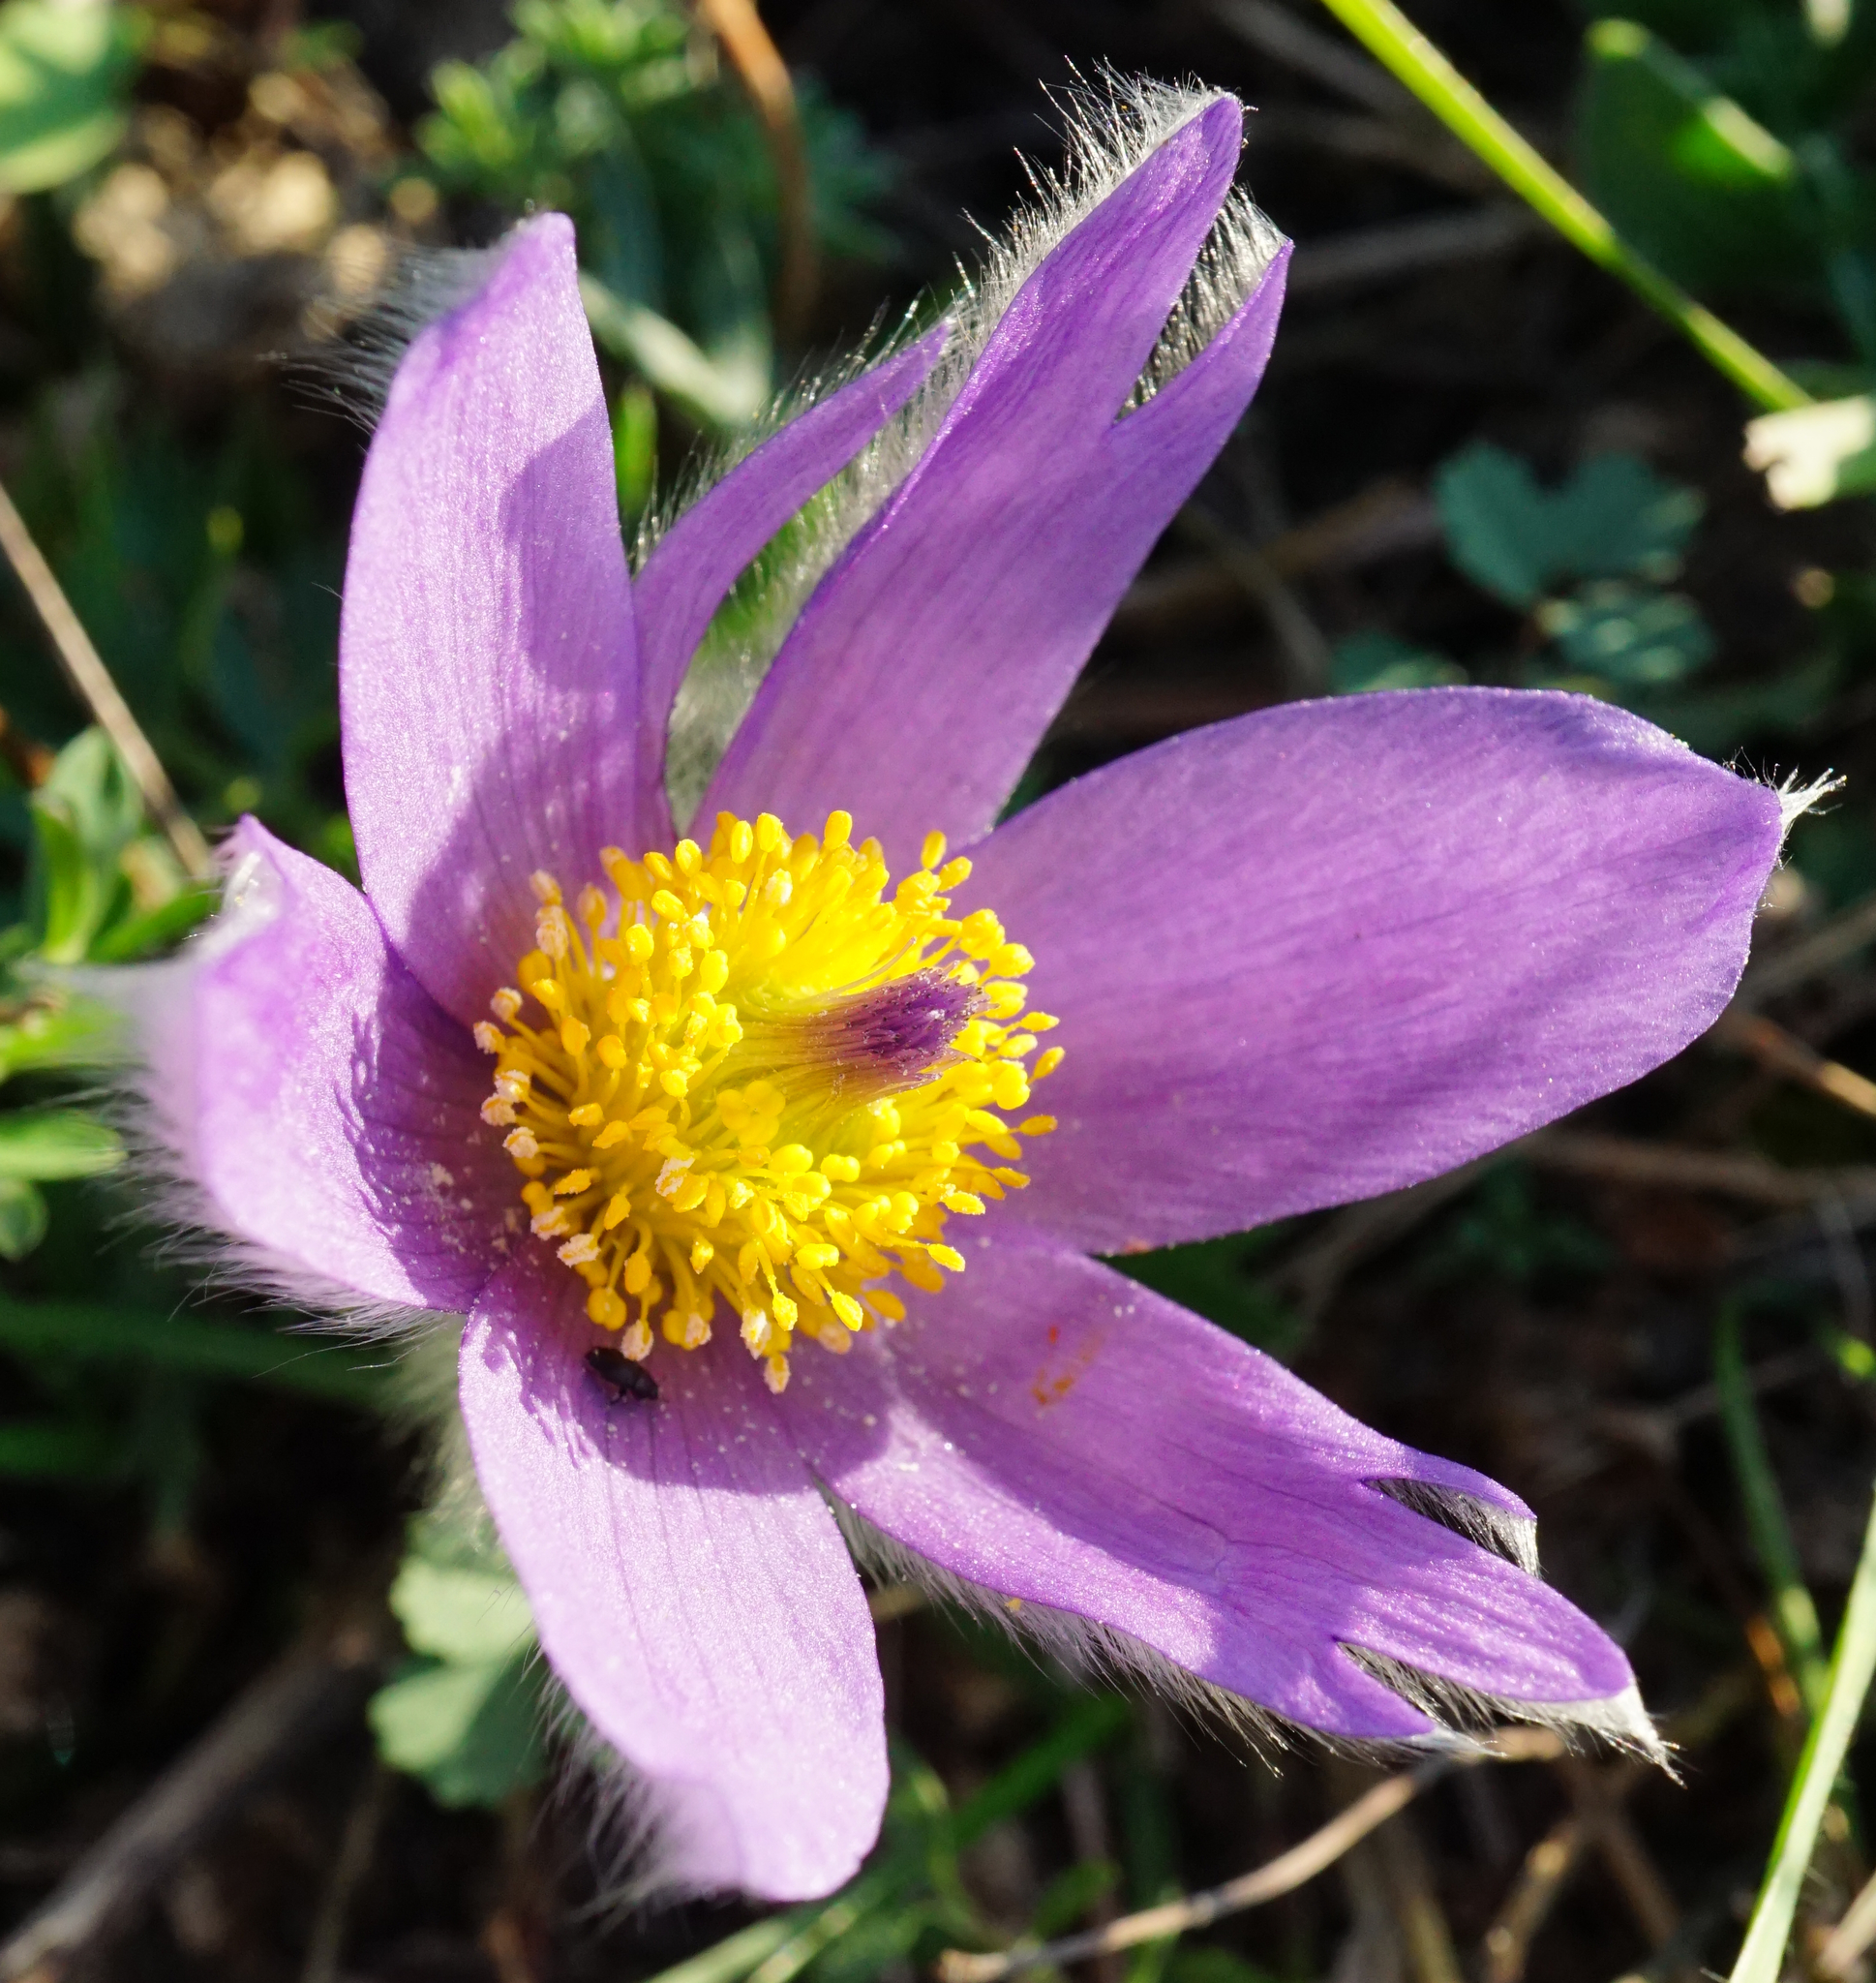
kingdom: Plantae
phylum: Tracheophyta
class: Magnoliopsida
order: Ranunculales
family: Ranunculaceae
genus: Pulsatilla
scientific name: Pulsatilla grandis
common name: Greater pasque flower
